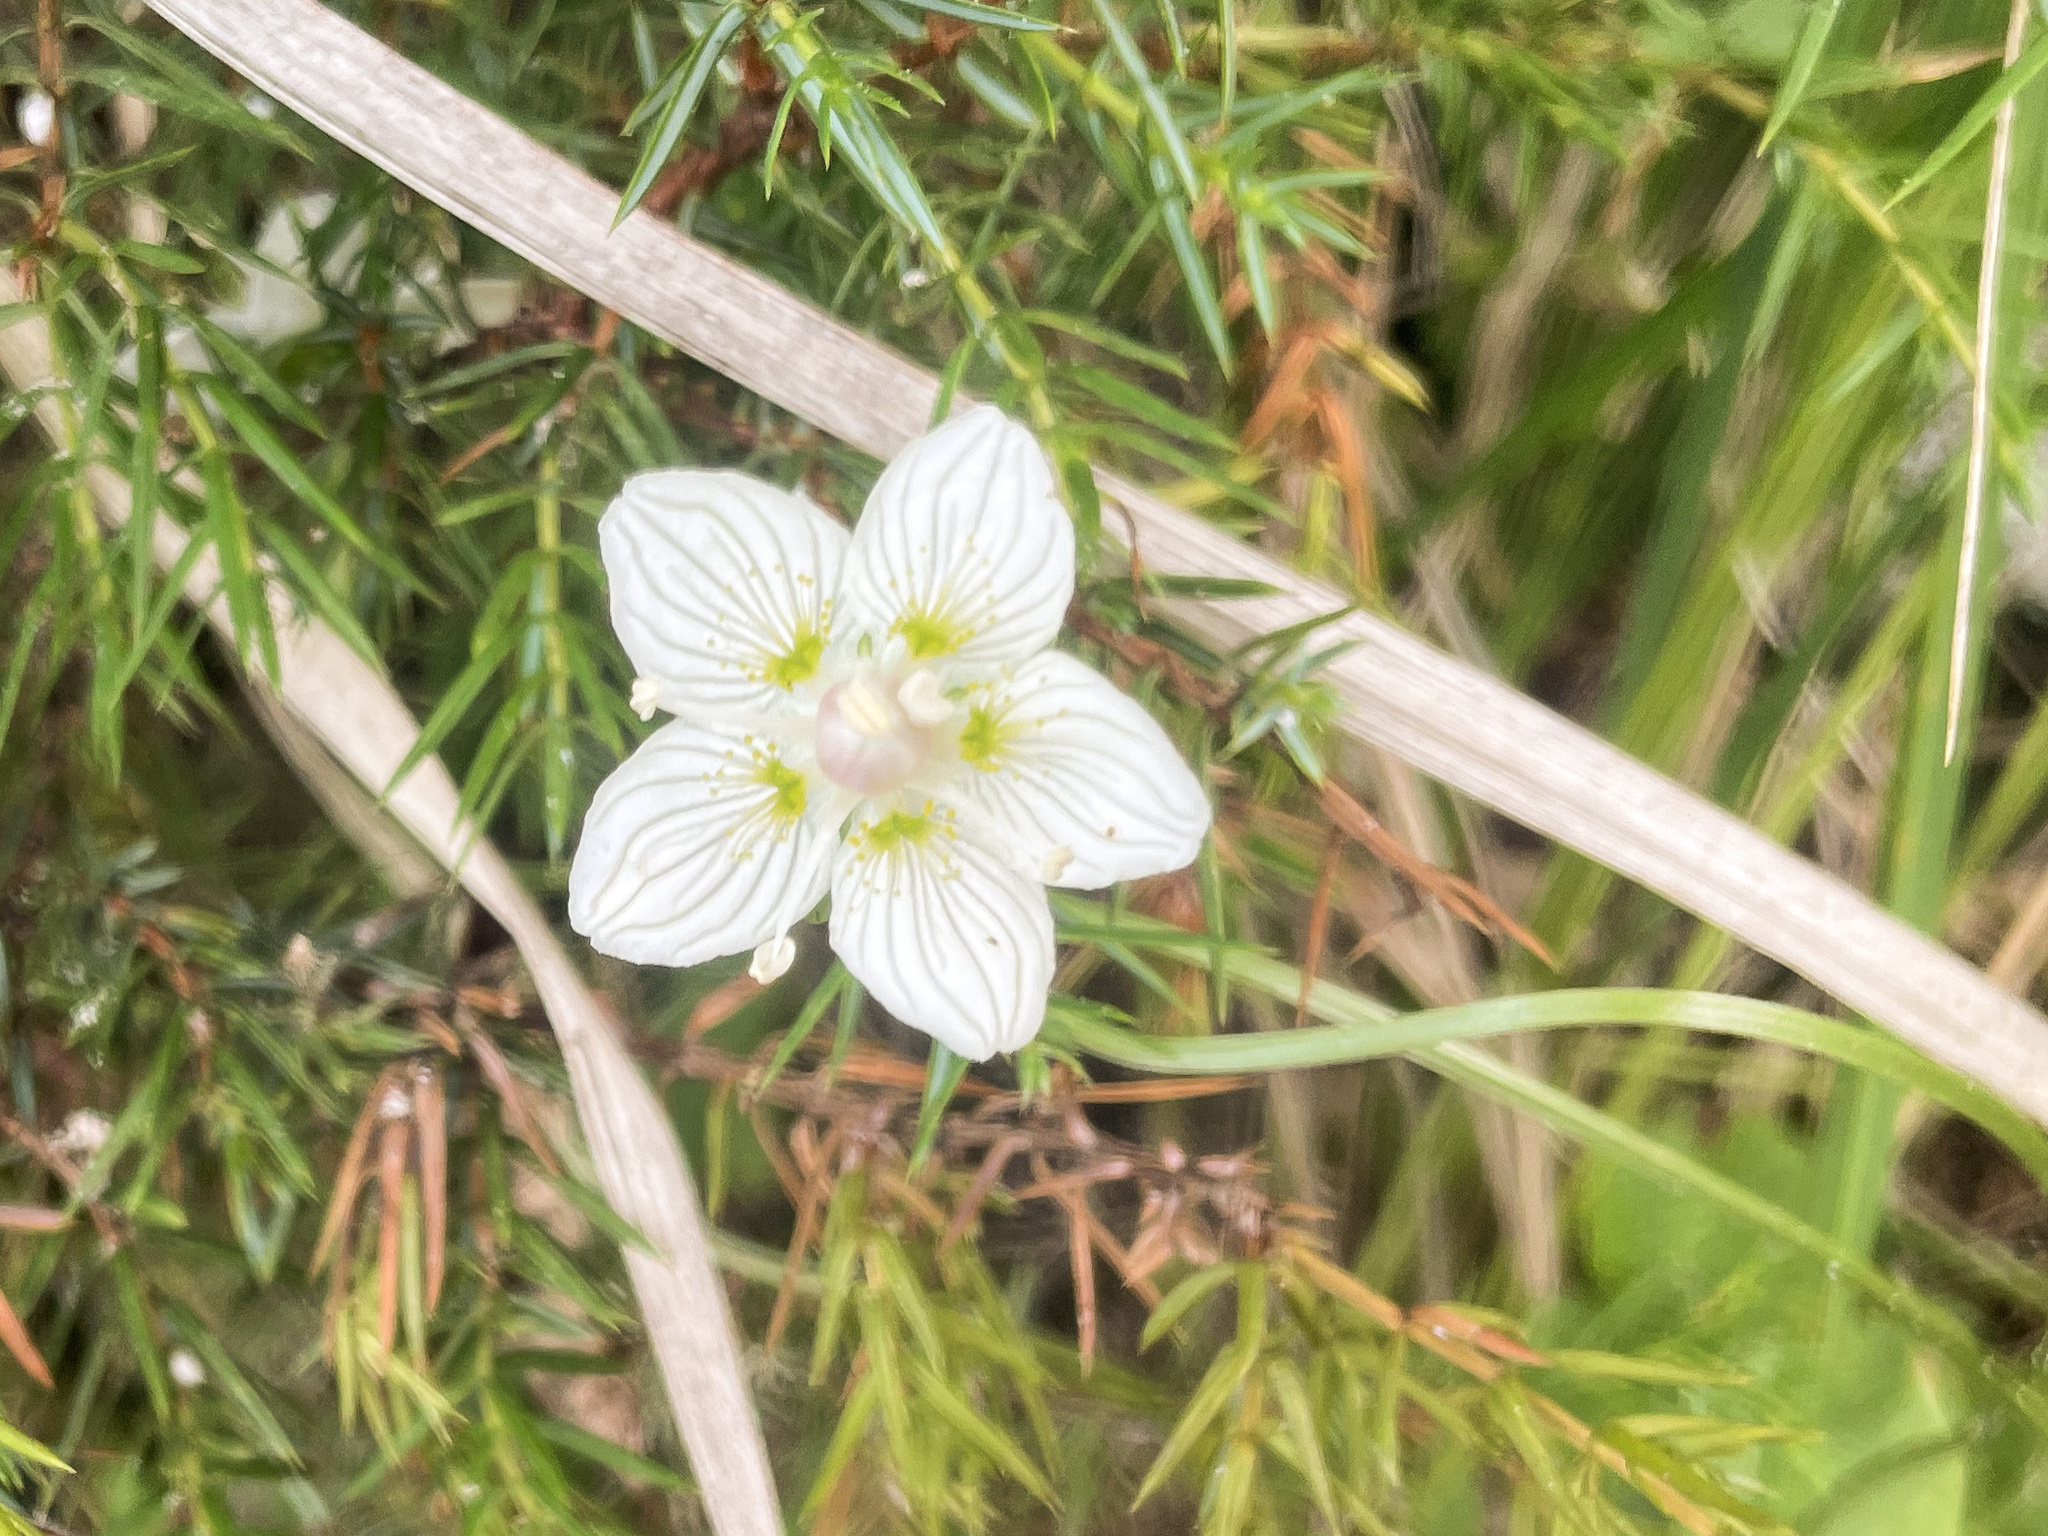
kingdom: Plantae
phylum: Tracheophyta
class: Magnoliopsida
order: Celastrales
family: Parnassiaceae
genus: Parnassia
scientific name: Parnassia palustris
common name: Grass-of-parnassus
